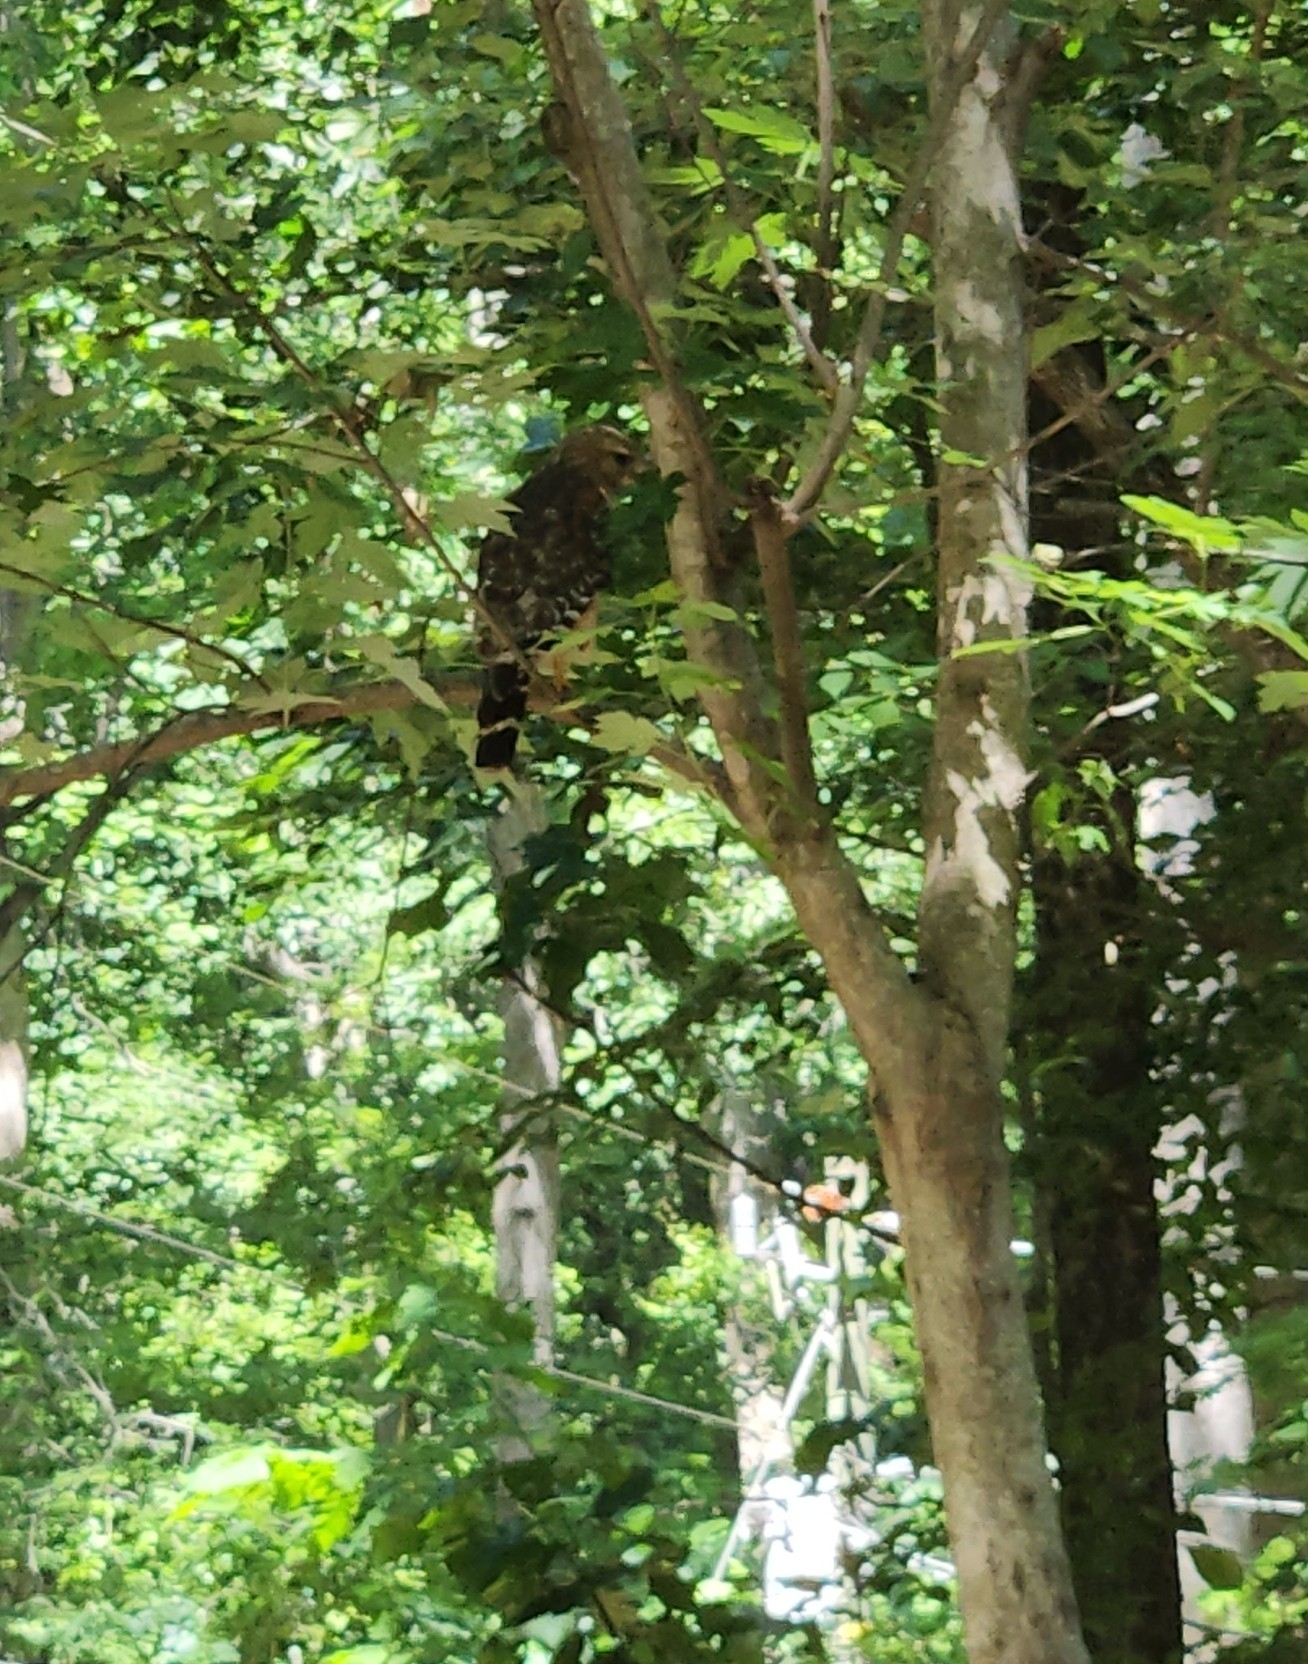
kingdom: Animalia
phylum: Chordata
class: Aves
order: Accipitriformes
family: Accipitridae
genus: Buteo
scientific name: Buteo lineatus
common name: Red-shouldered hawk
